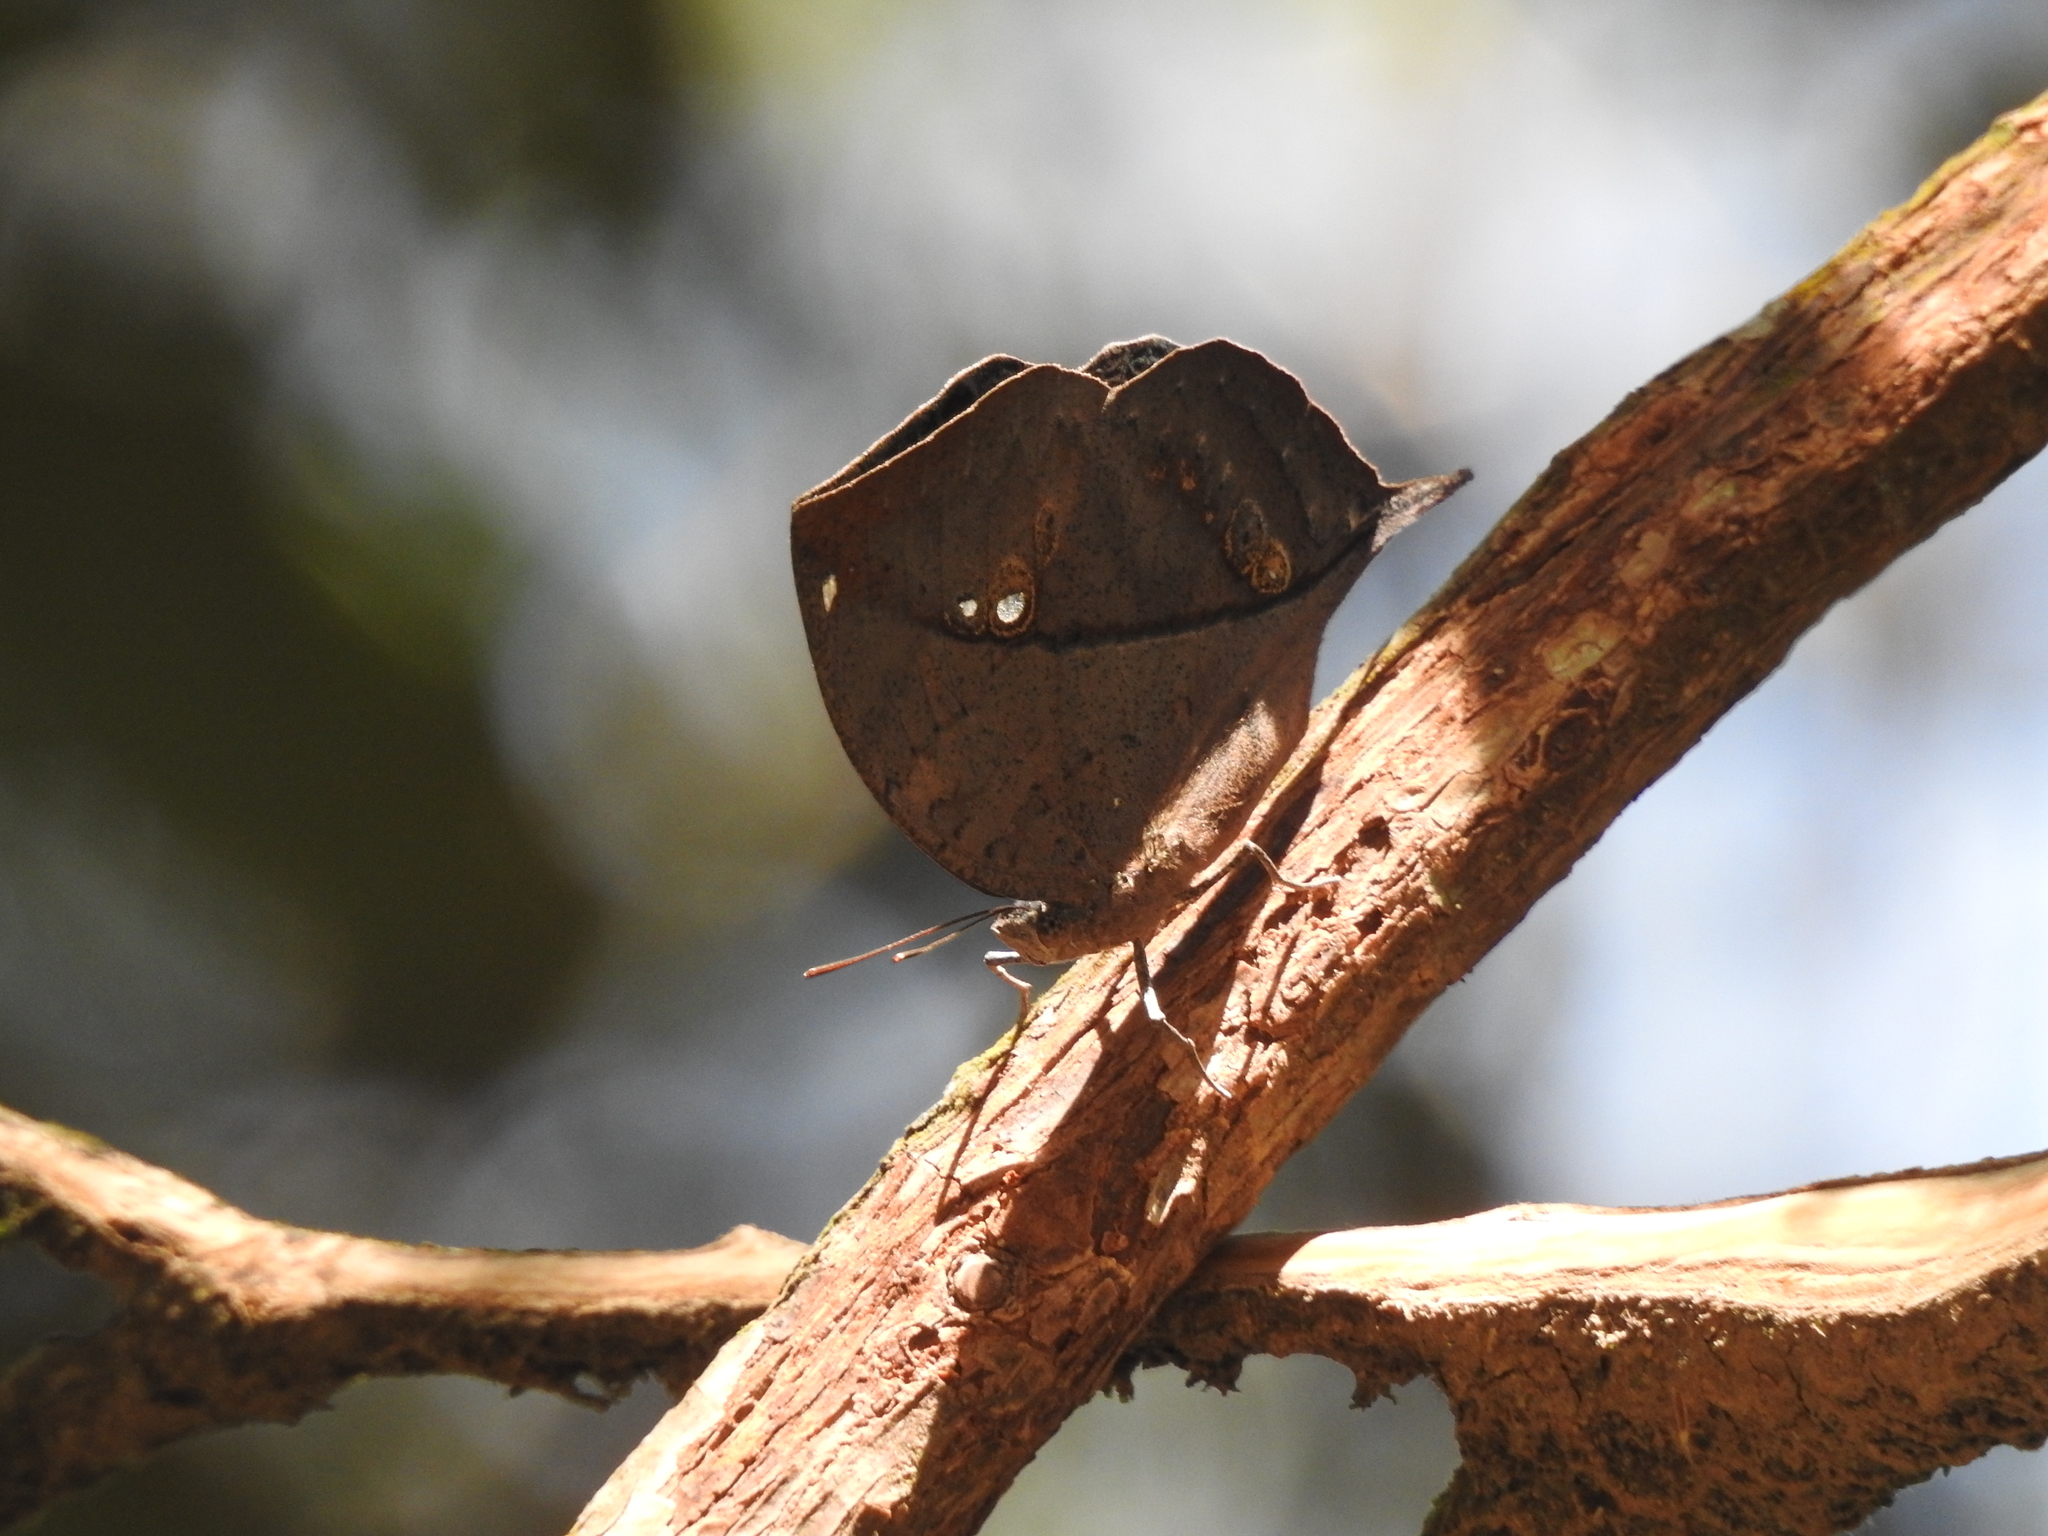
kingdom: Animalia
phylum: Arthropoda
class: Insecta
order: Lepidoptera
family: Nymphalidae
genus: Kallima
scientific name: Kallima horsfieldii
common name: Sahyadri blue oakleaf
